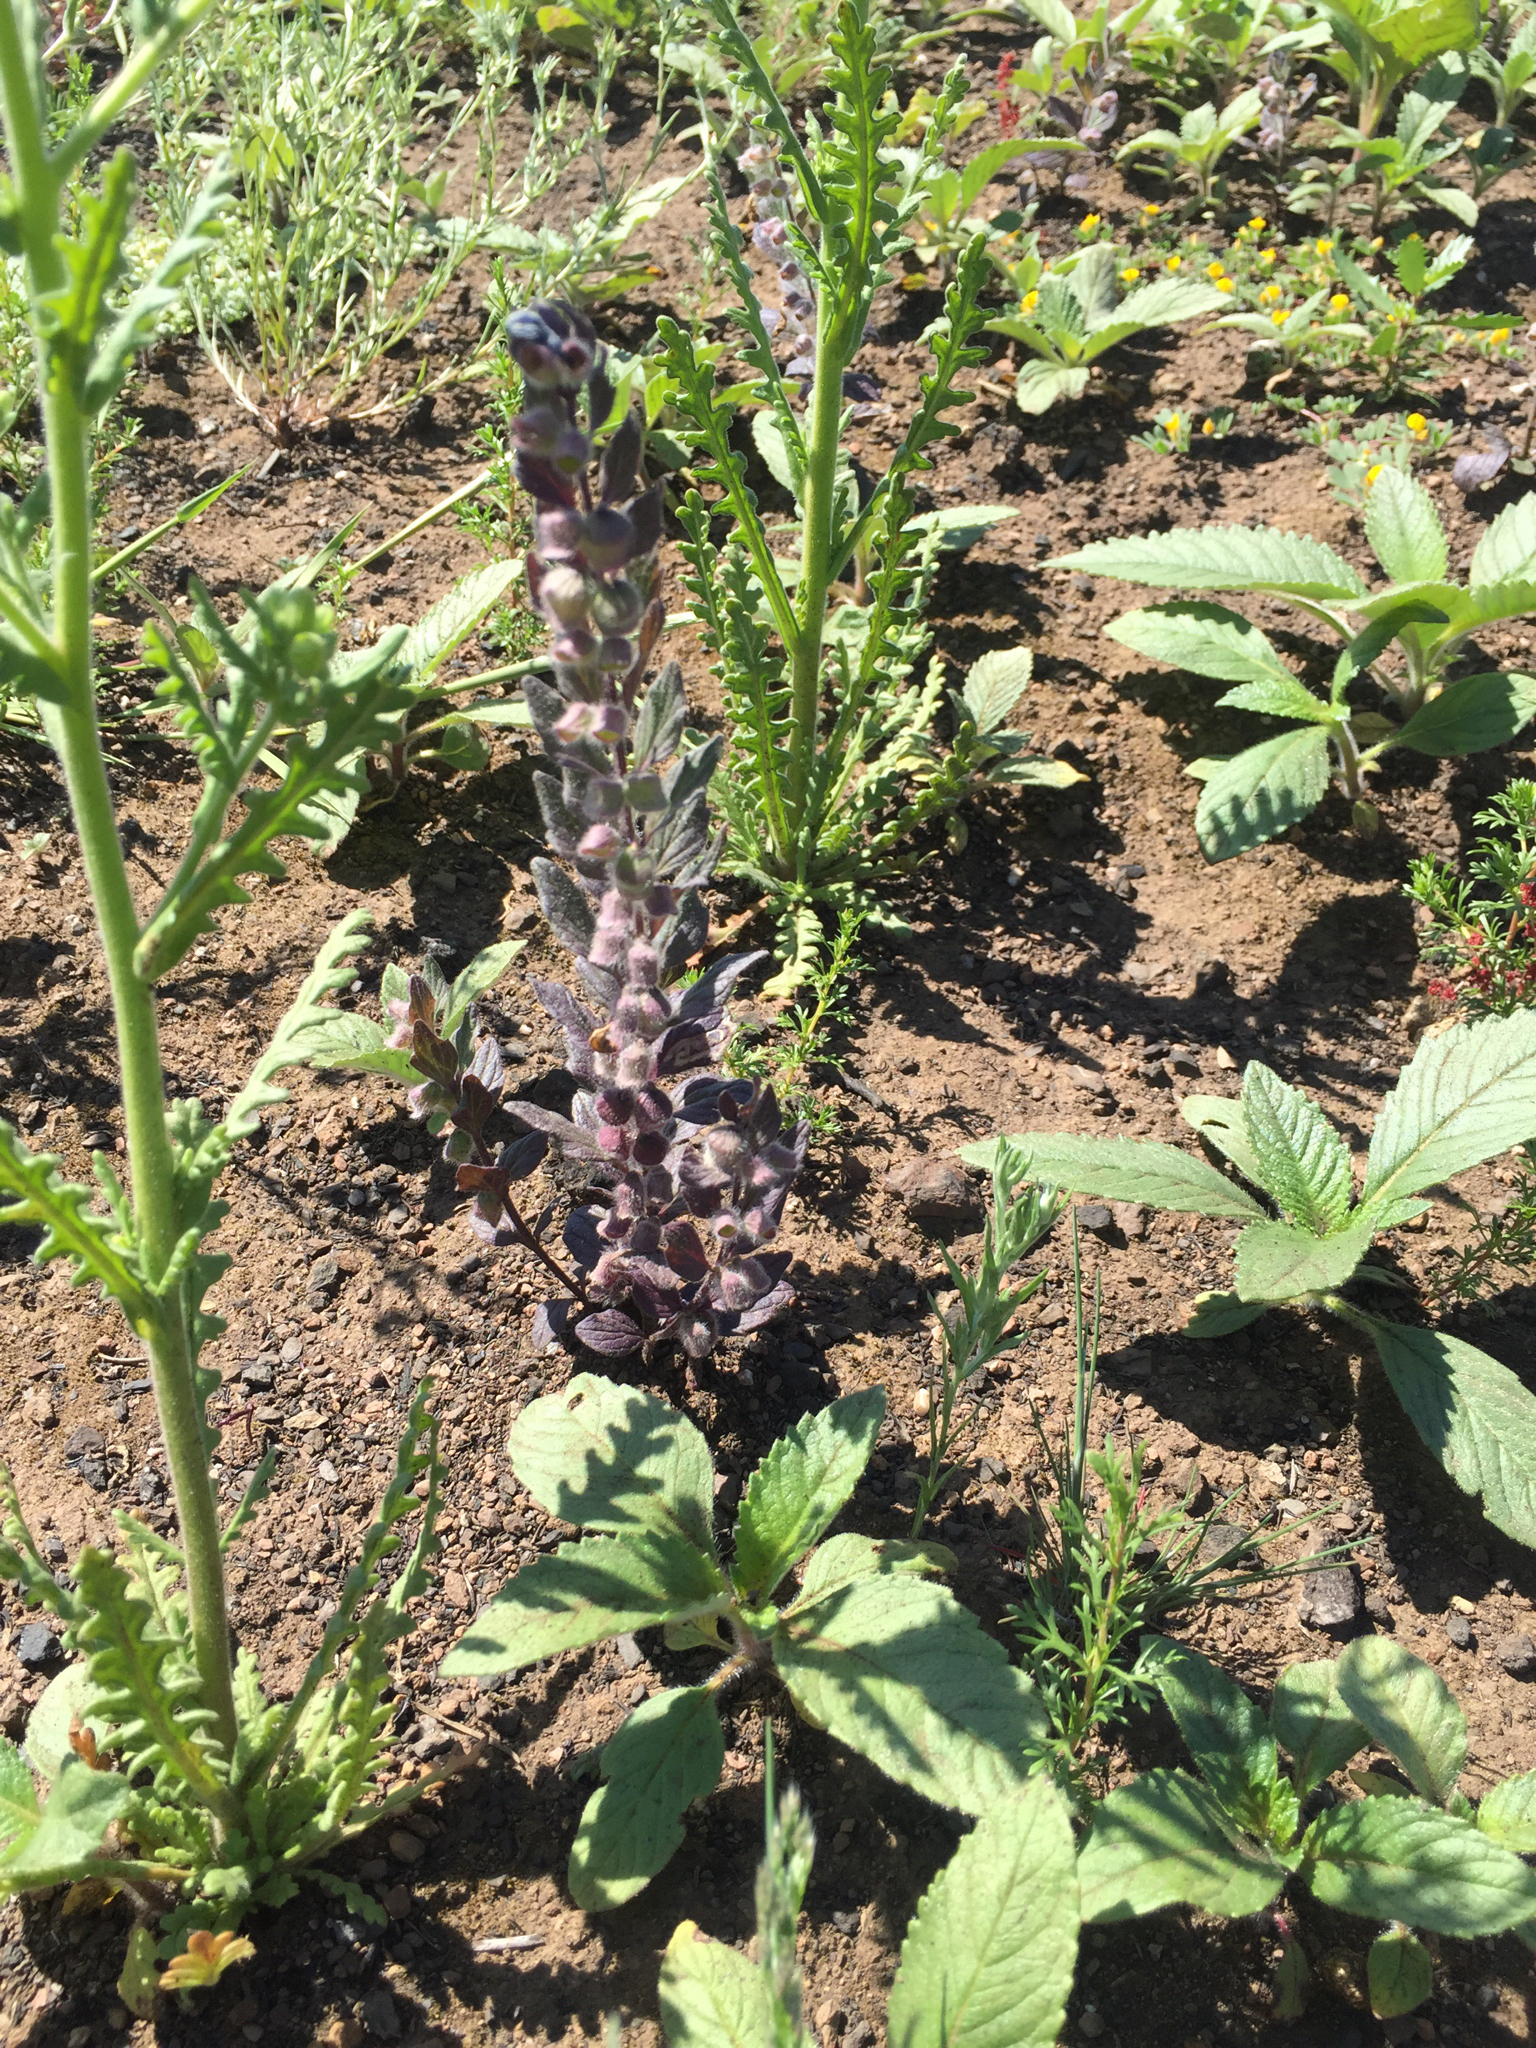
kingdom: Plantae
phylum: Tracheophyta
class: Magnoliopsida
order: Lamiales
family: Lamiaceae
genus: Scutellaria
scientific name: Scutellaria tuberosa
